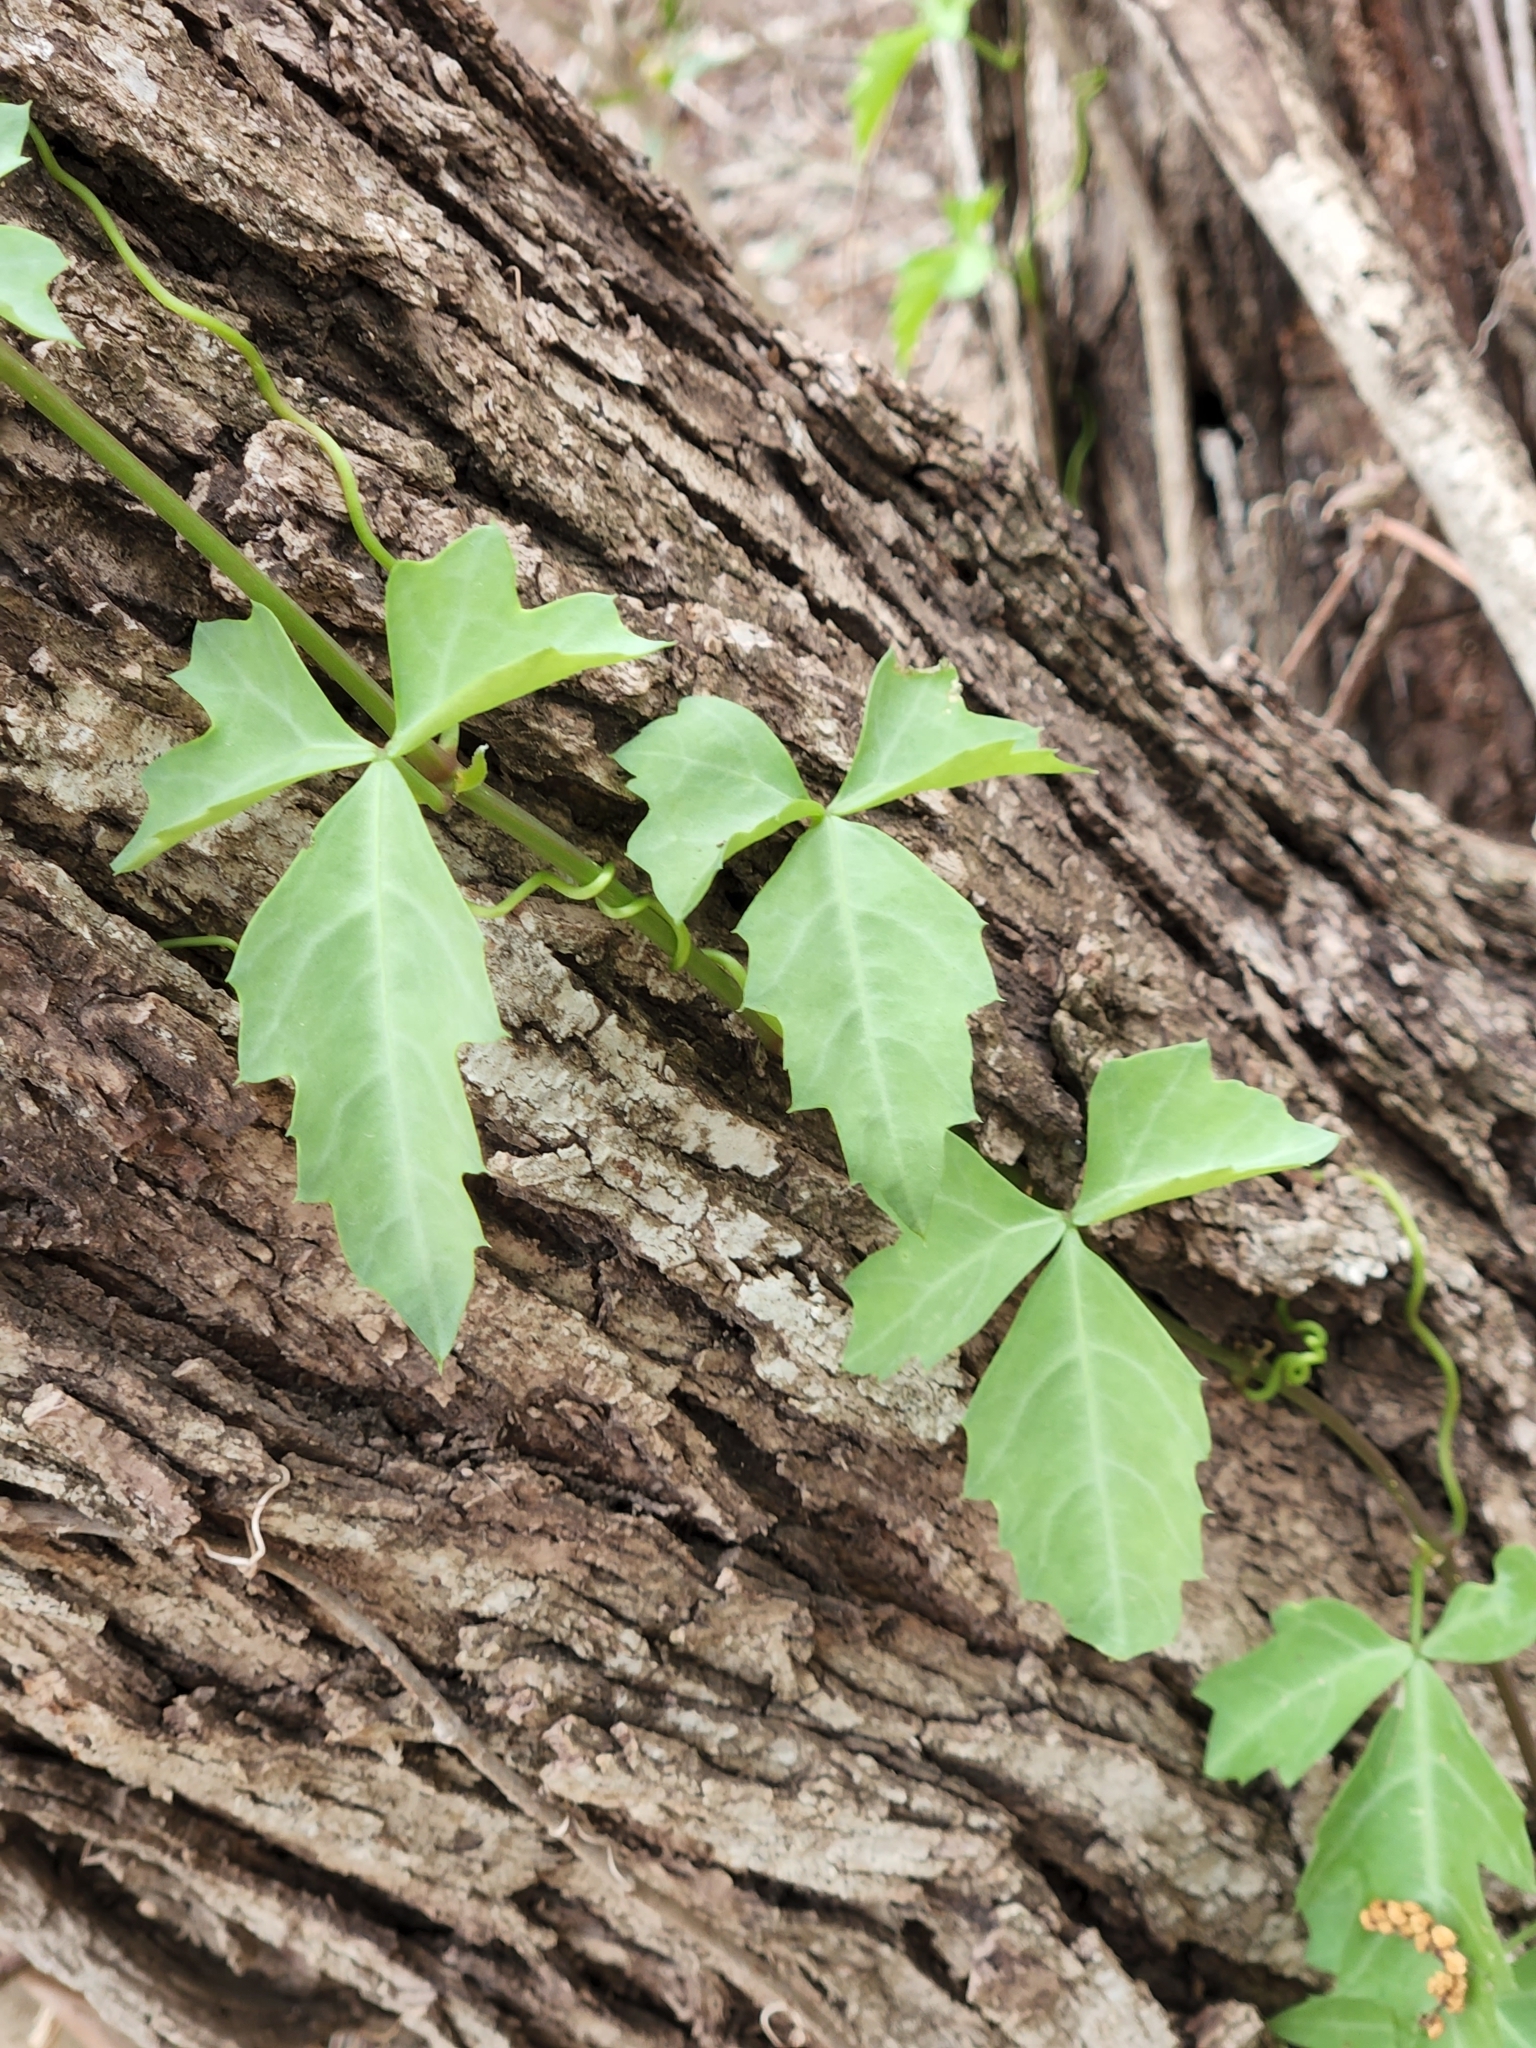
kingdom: Plantae
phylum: Tracheophyta
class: Magnoliopsida
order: Vitales
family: Vitaceae
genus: Cissus
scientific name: Cissus trifoliata
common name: Vine-sorrel
